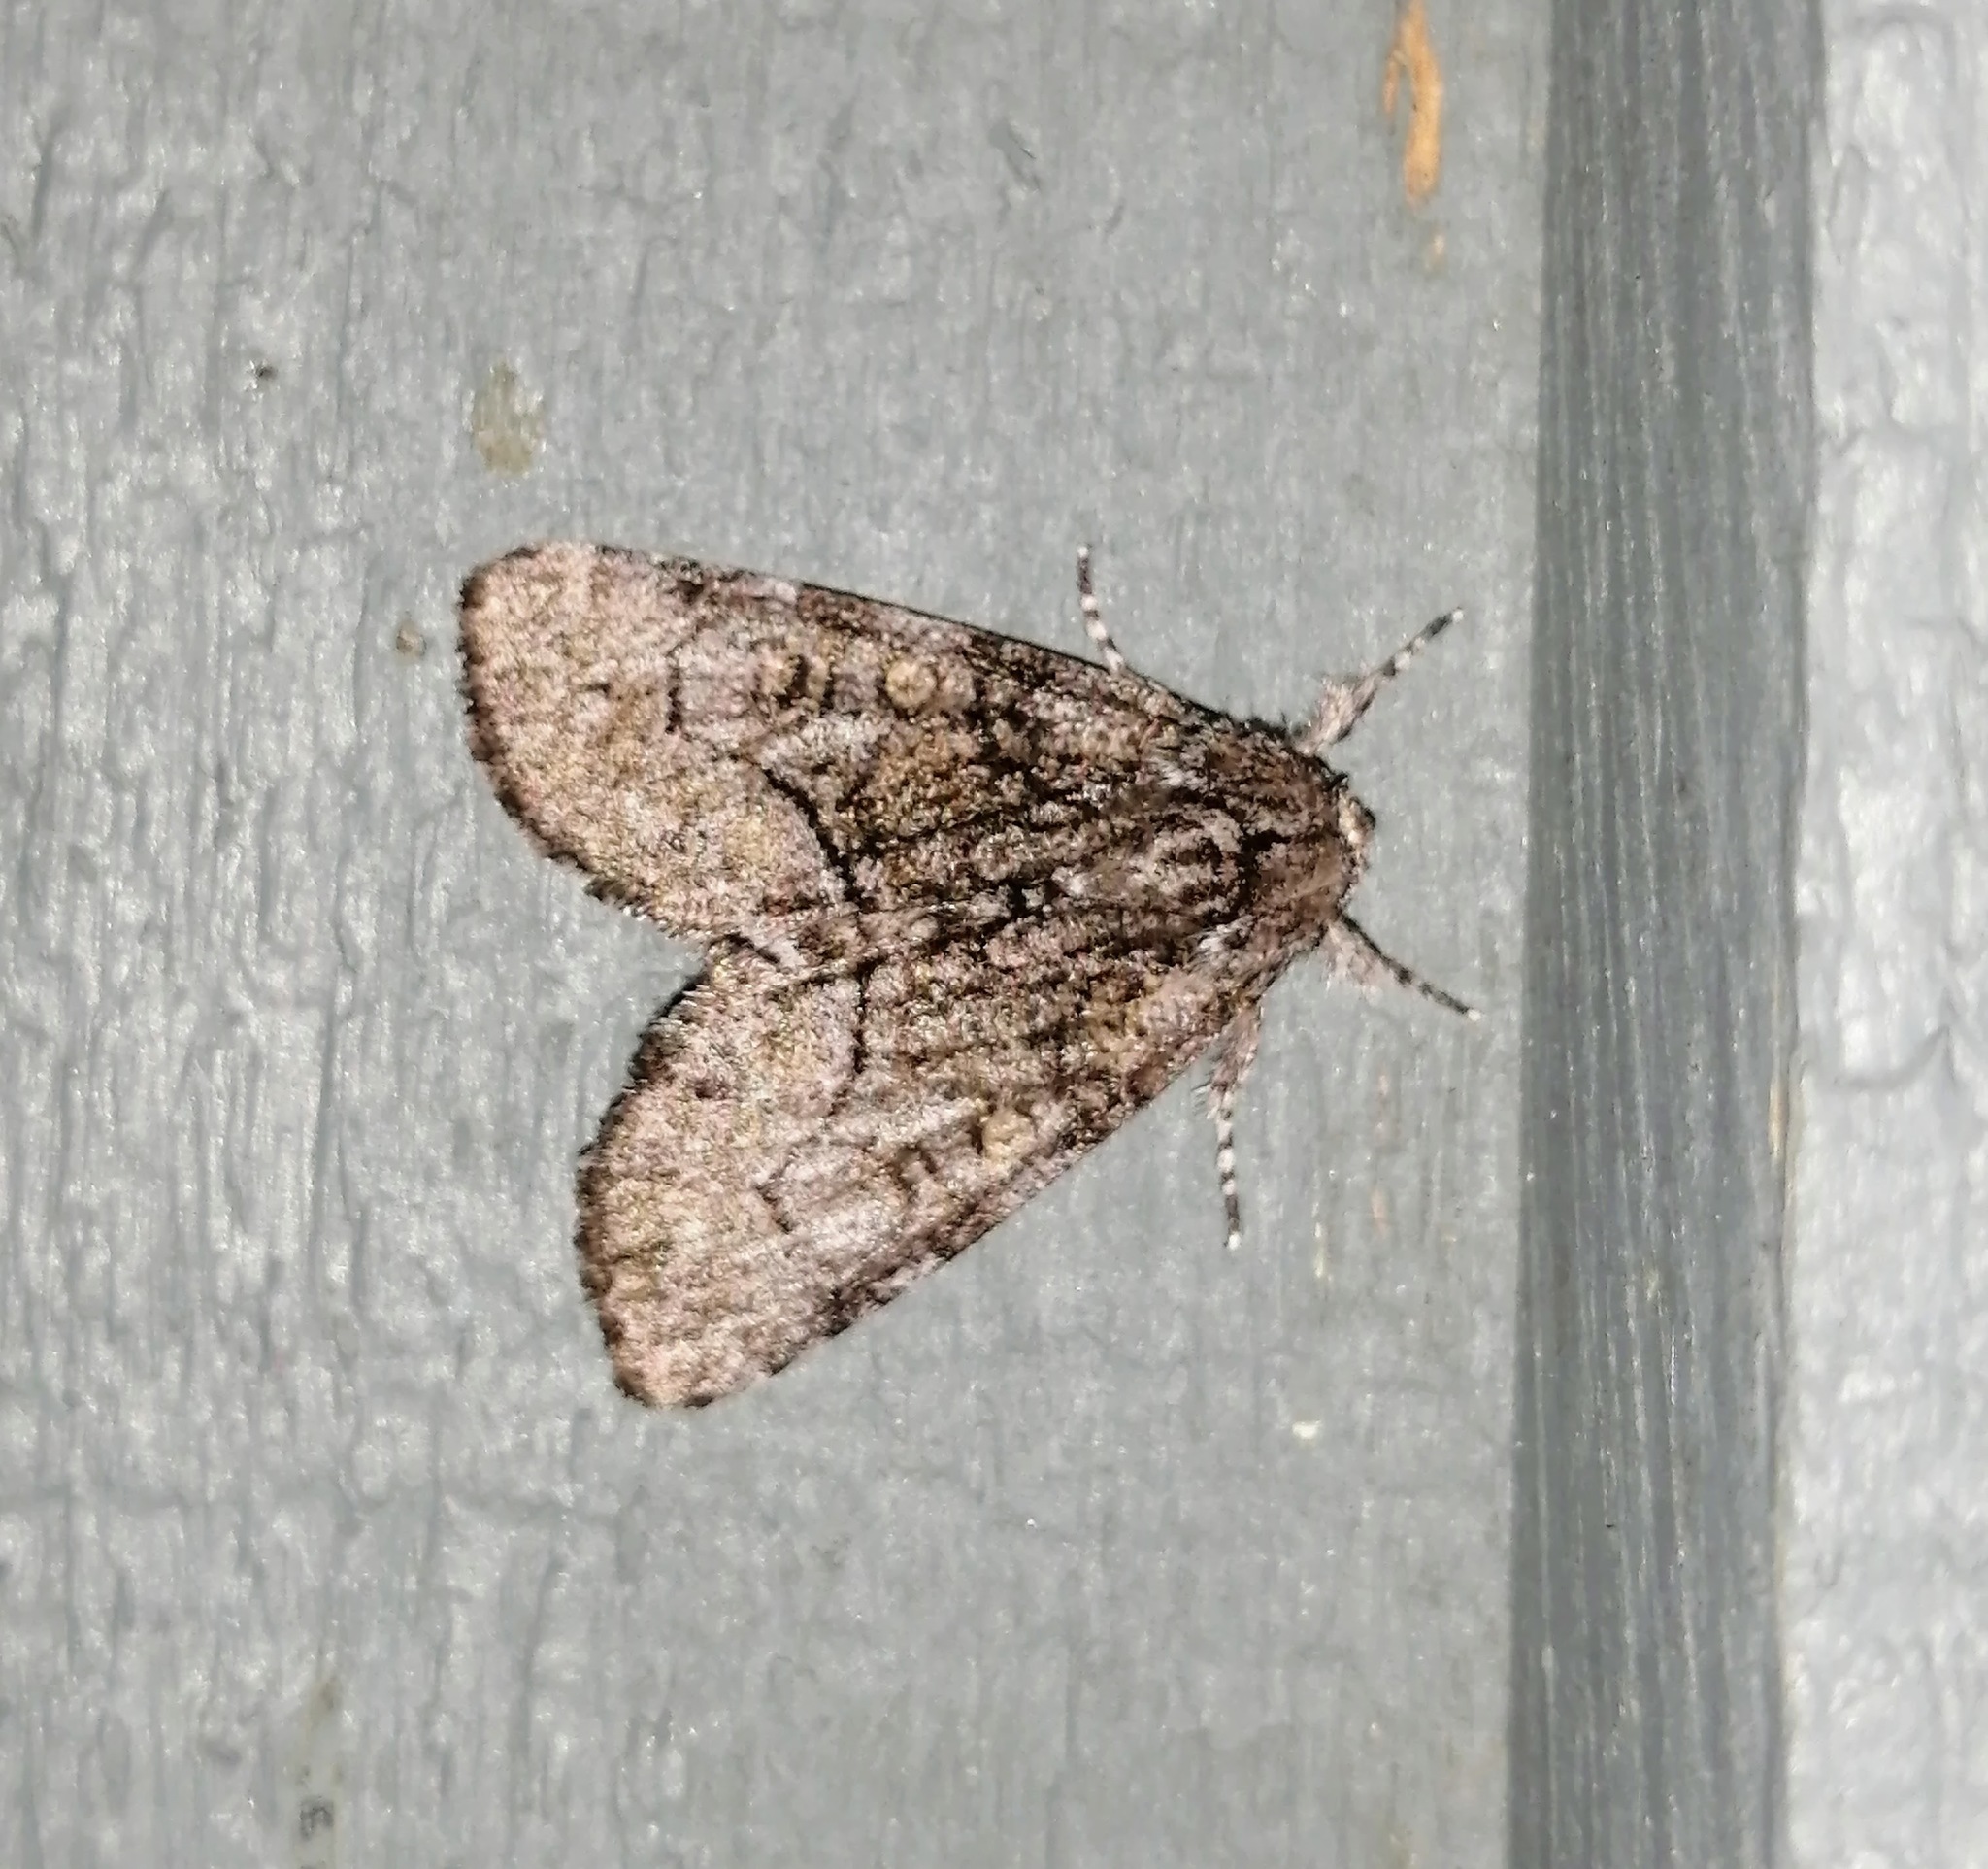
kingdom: Animalia
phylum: Arthropoda
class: Insecta
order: Lepidoptera
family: Noctuidae
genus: Raphia
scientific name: Raphia frater
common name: Brother
